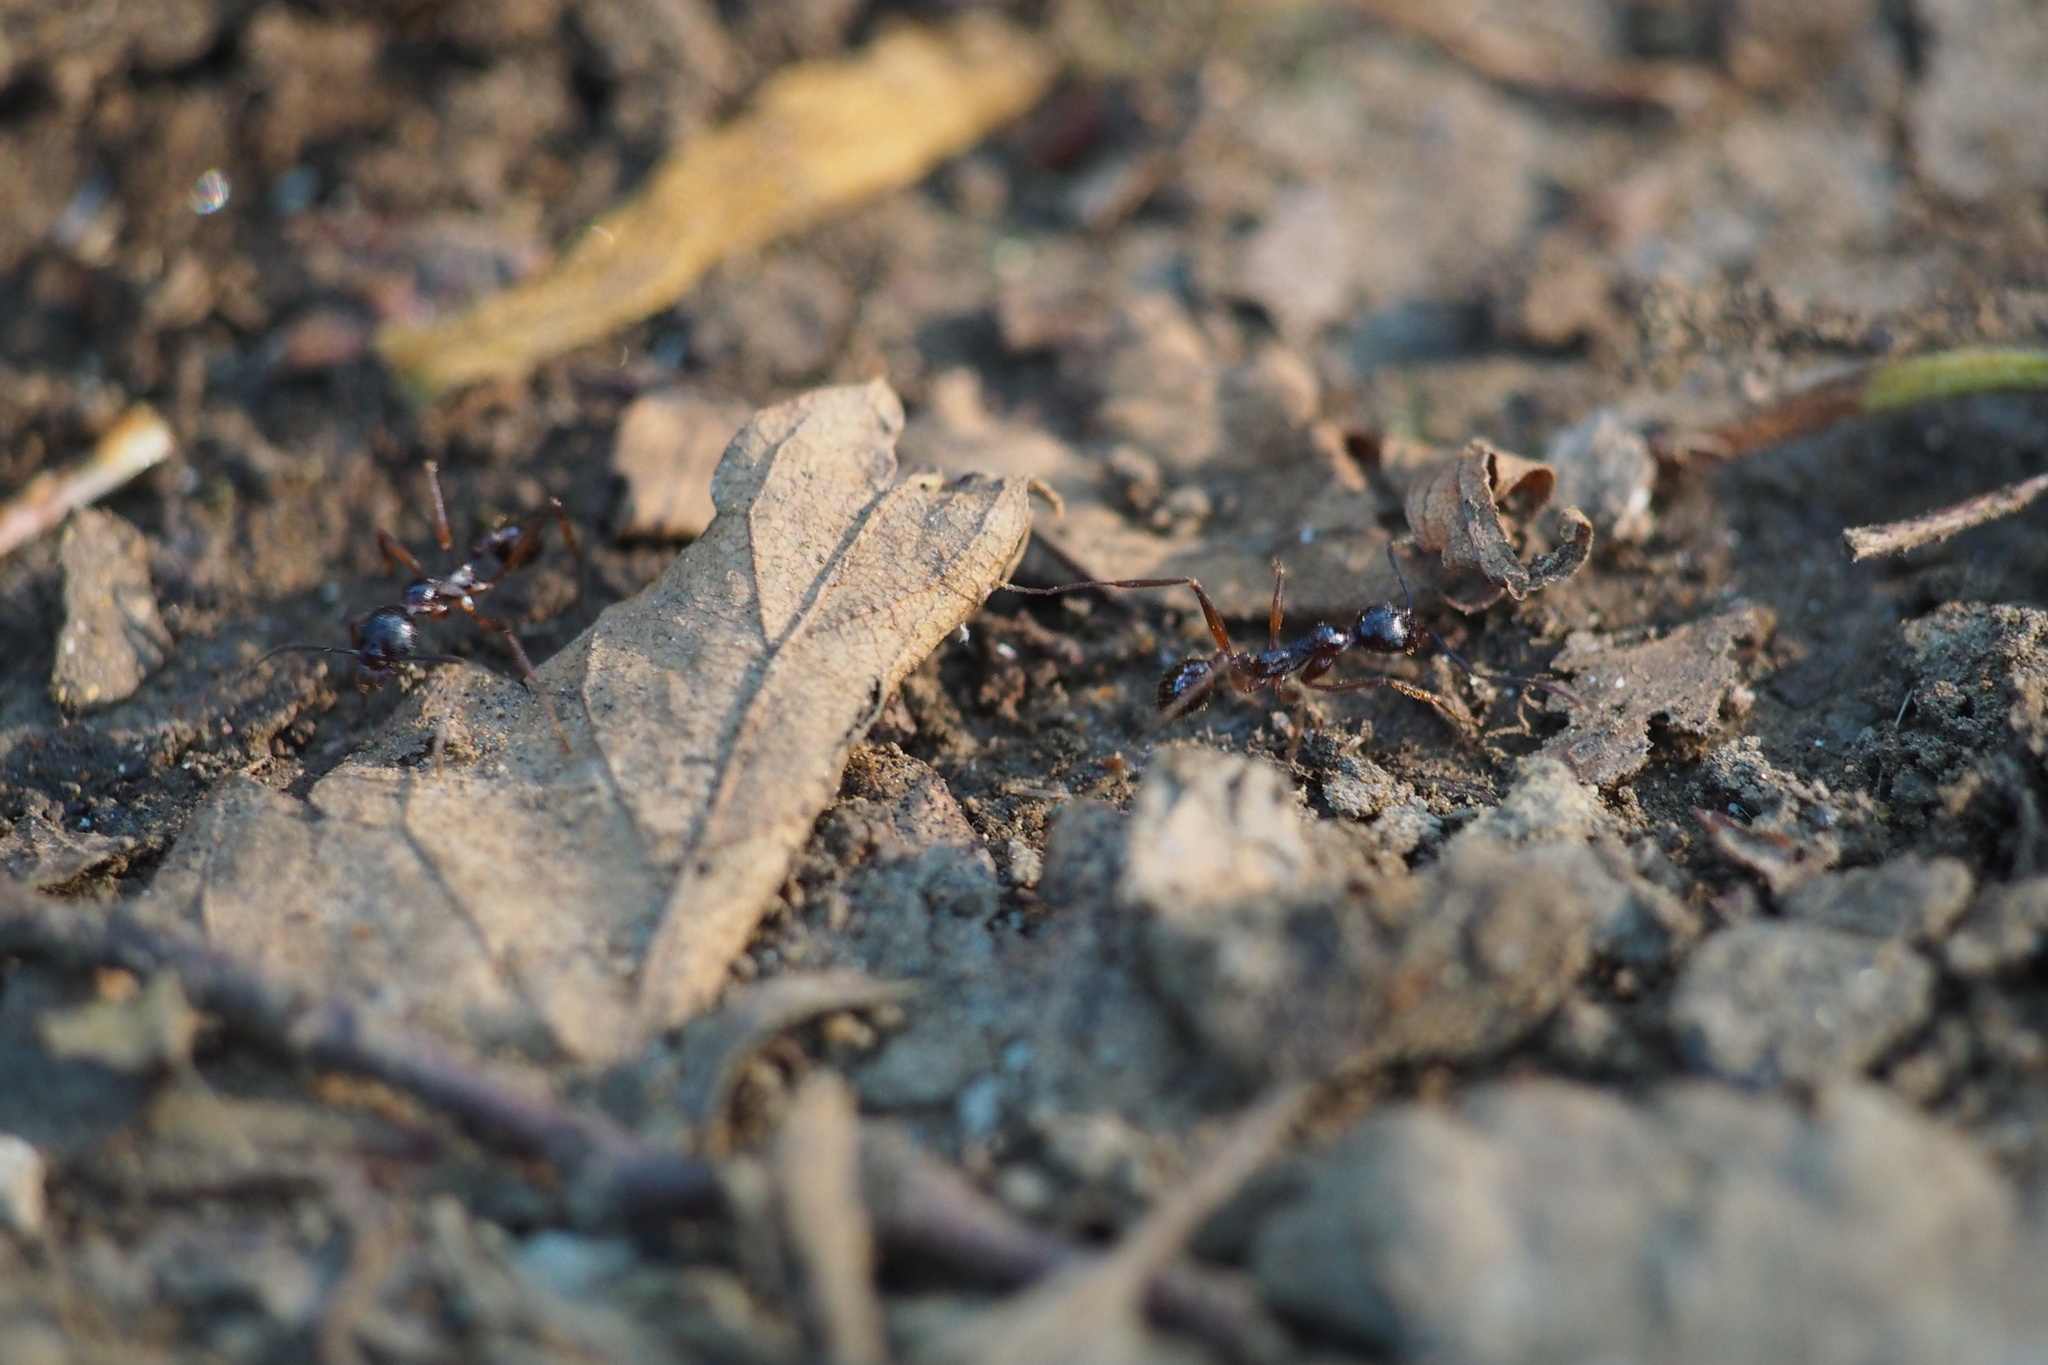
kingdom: Animalia
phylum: Arthropoda
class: Insecta
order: Hymenoptera
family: Formicidae
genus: Aphaenogaster
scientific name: Aphaenogaster famelica
